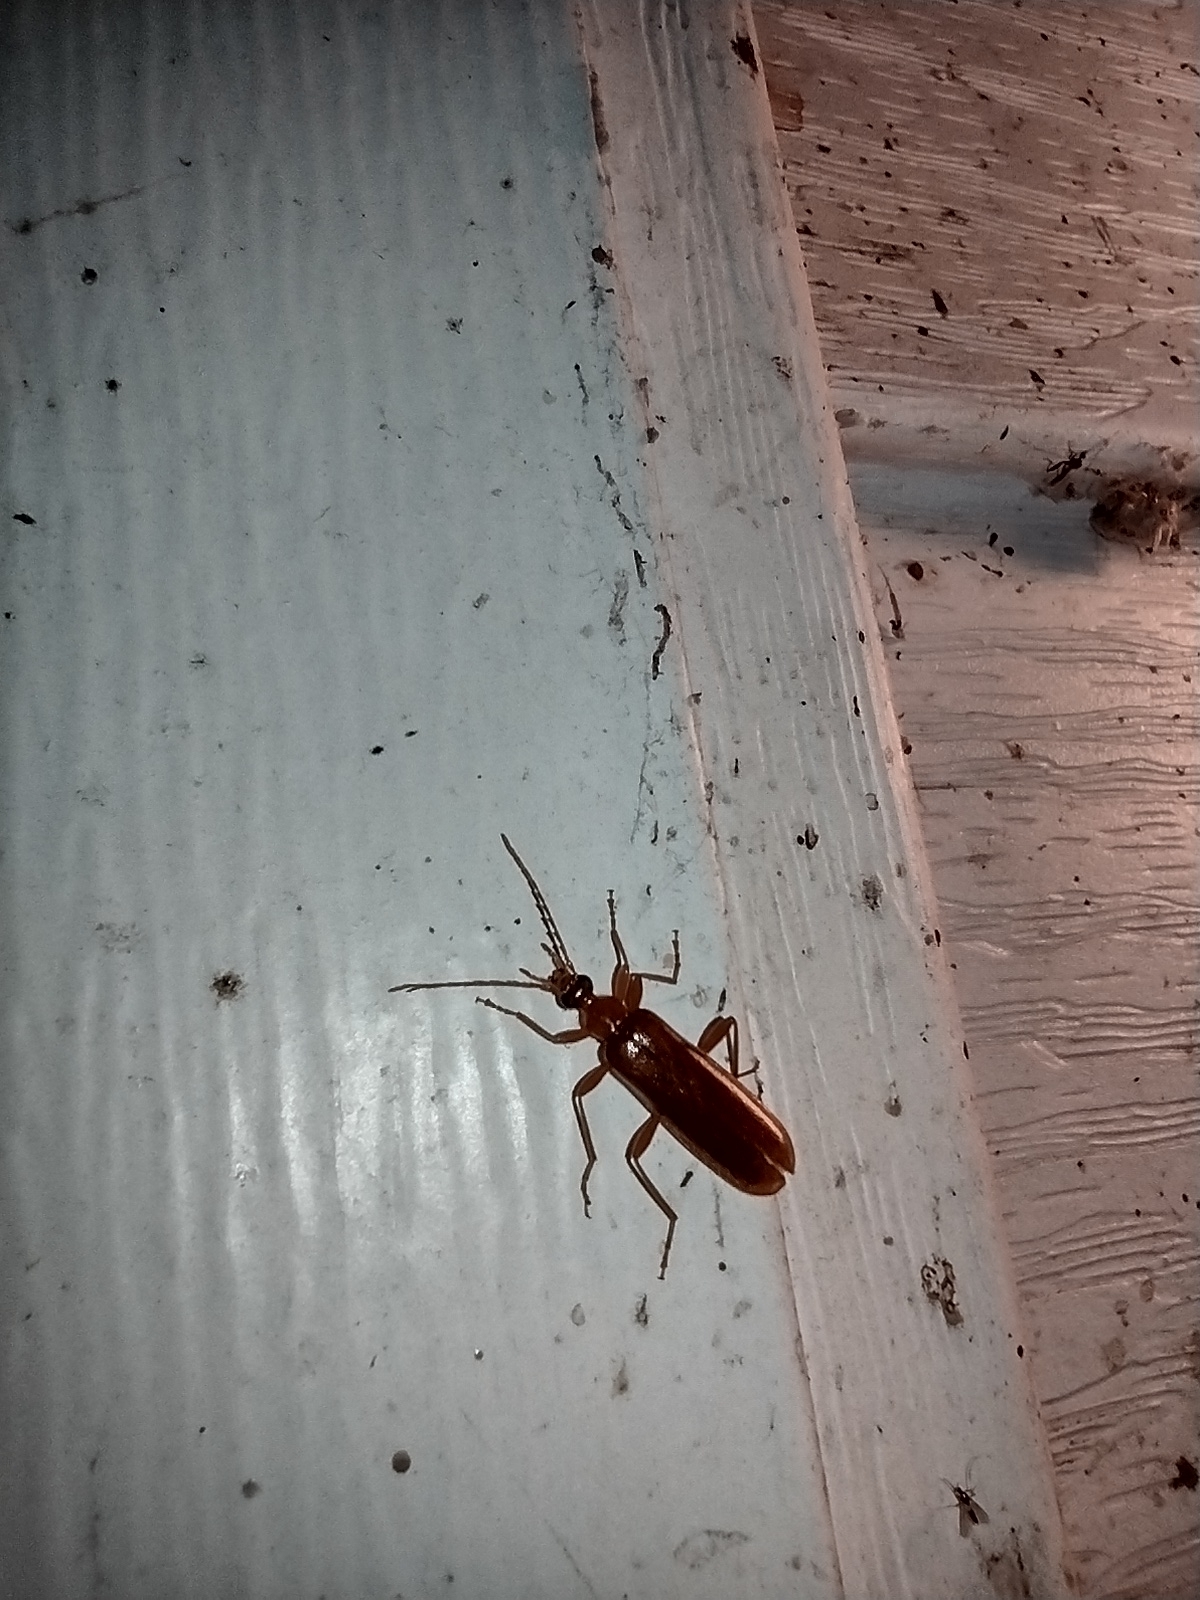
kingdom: Animalia
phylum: Arthropoda
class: Insecta
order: Coleoptera
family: Pyrochroidae
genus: Dendroides
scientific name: Dendroides concolor
